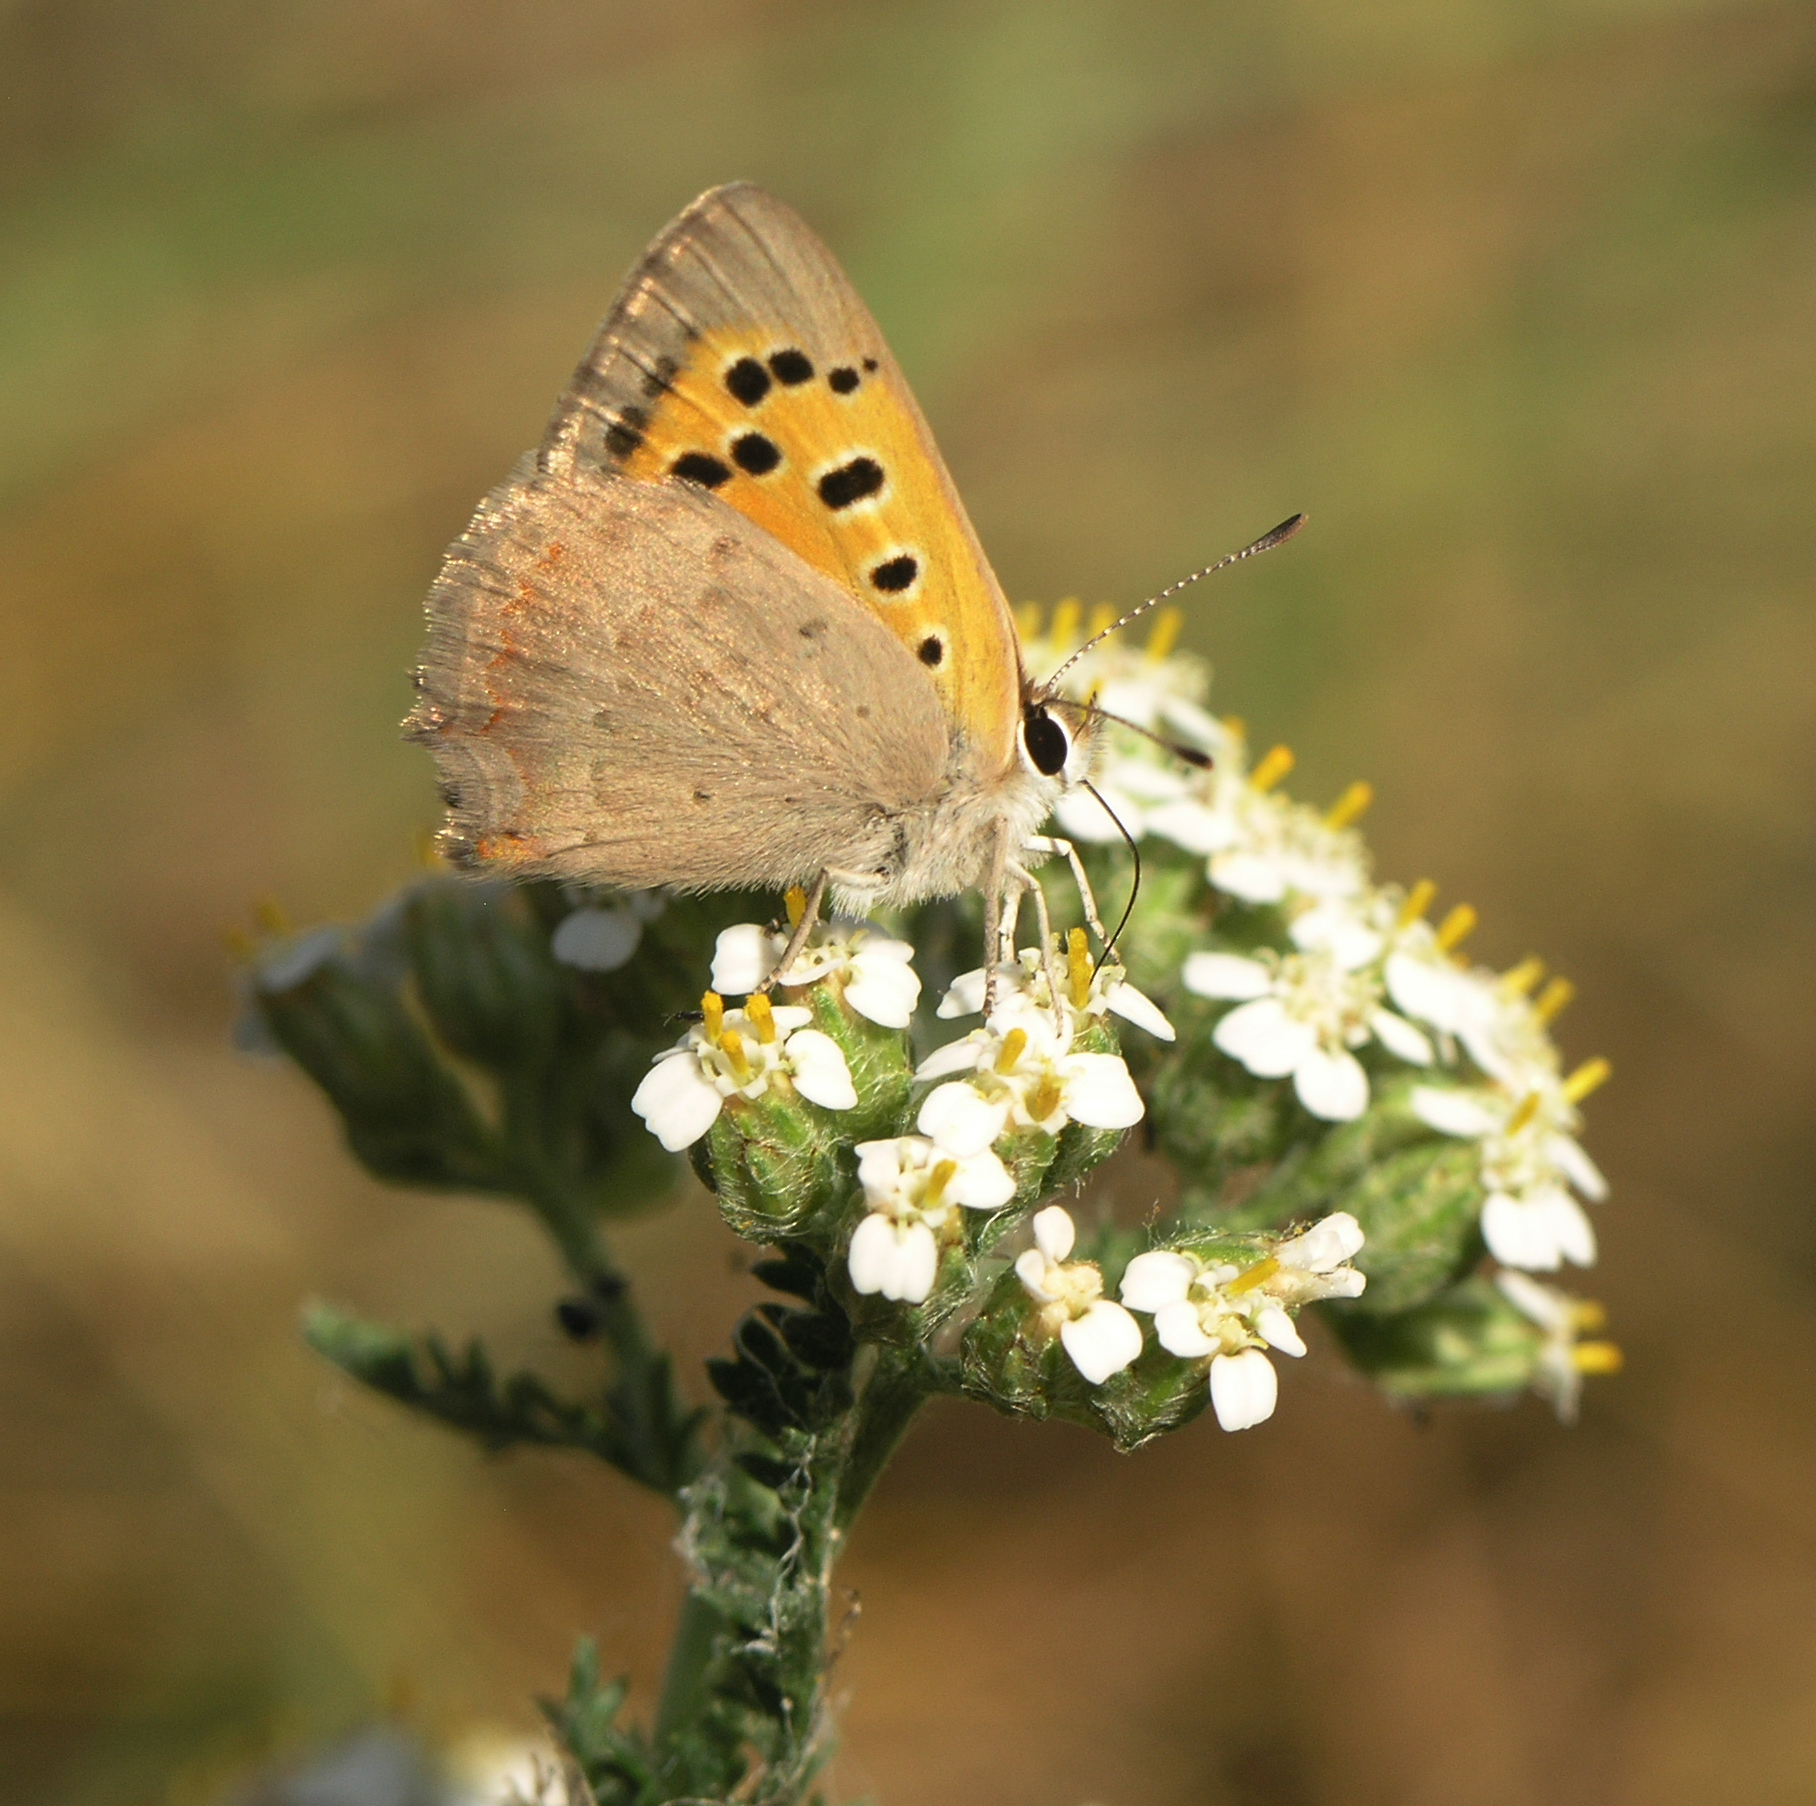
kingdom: Animalia
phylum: Arthropoda
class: Insecta
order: Lepidoptera
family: Lycaenidae
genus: Lycaena
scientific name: Lycaena phlaeas
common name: Small copper
